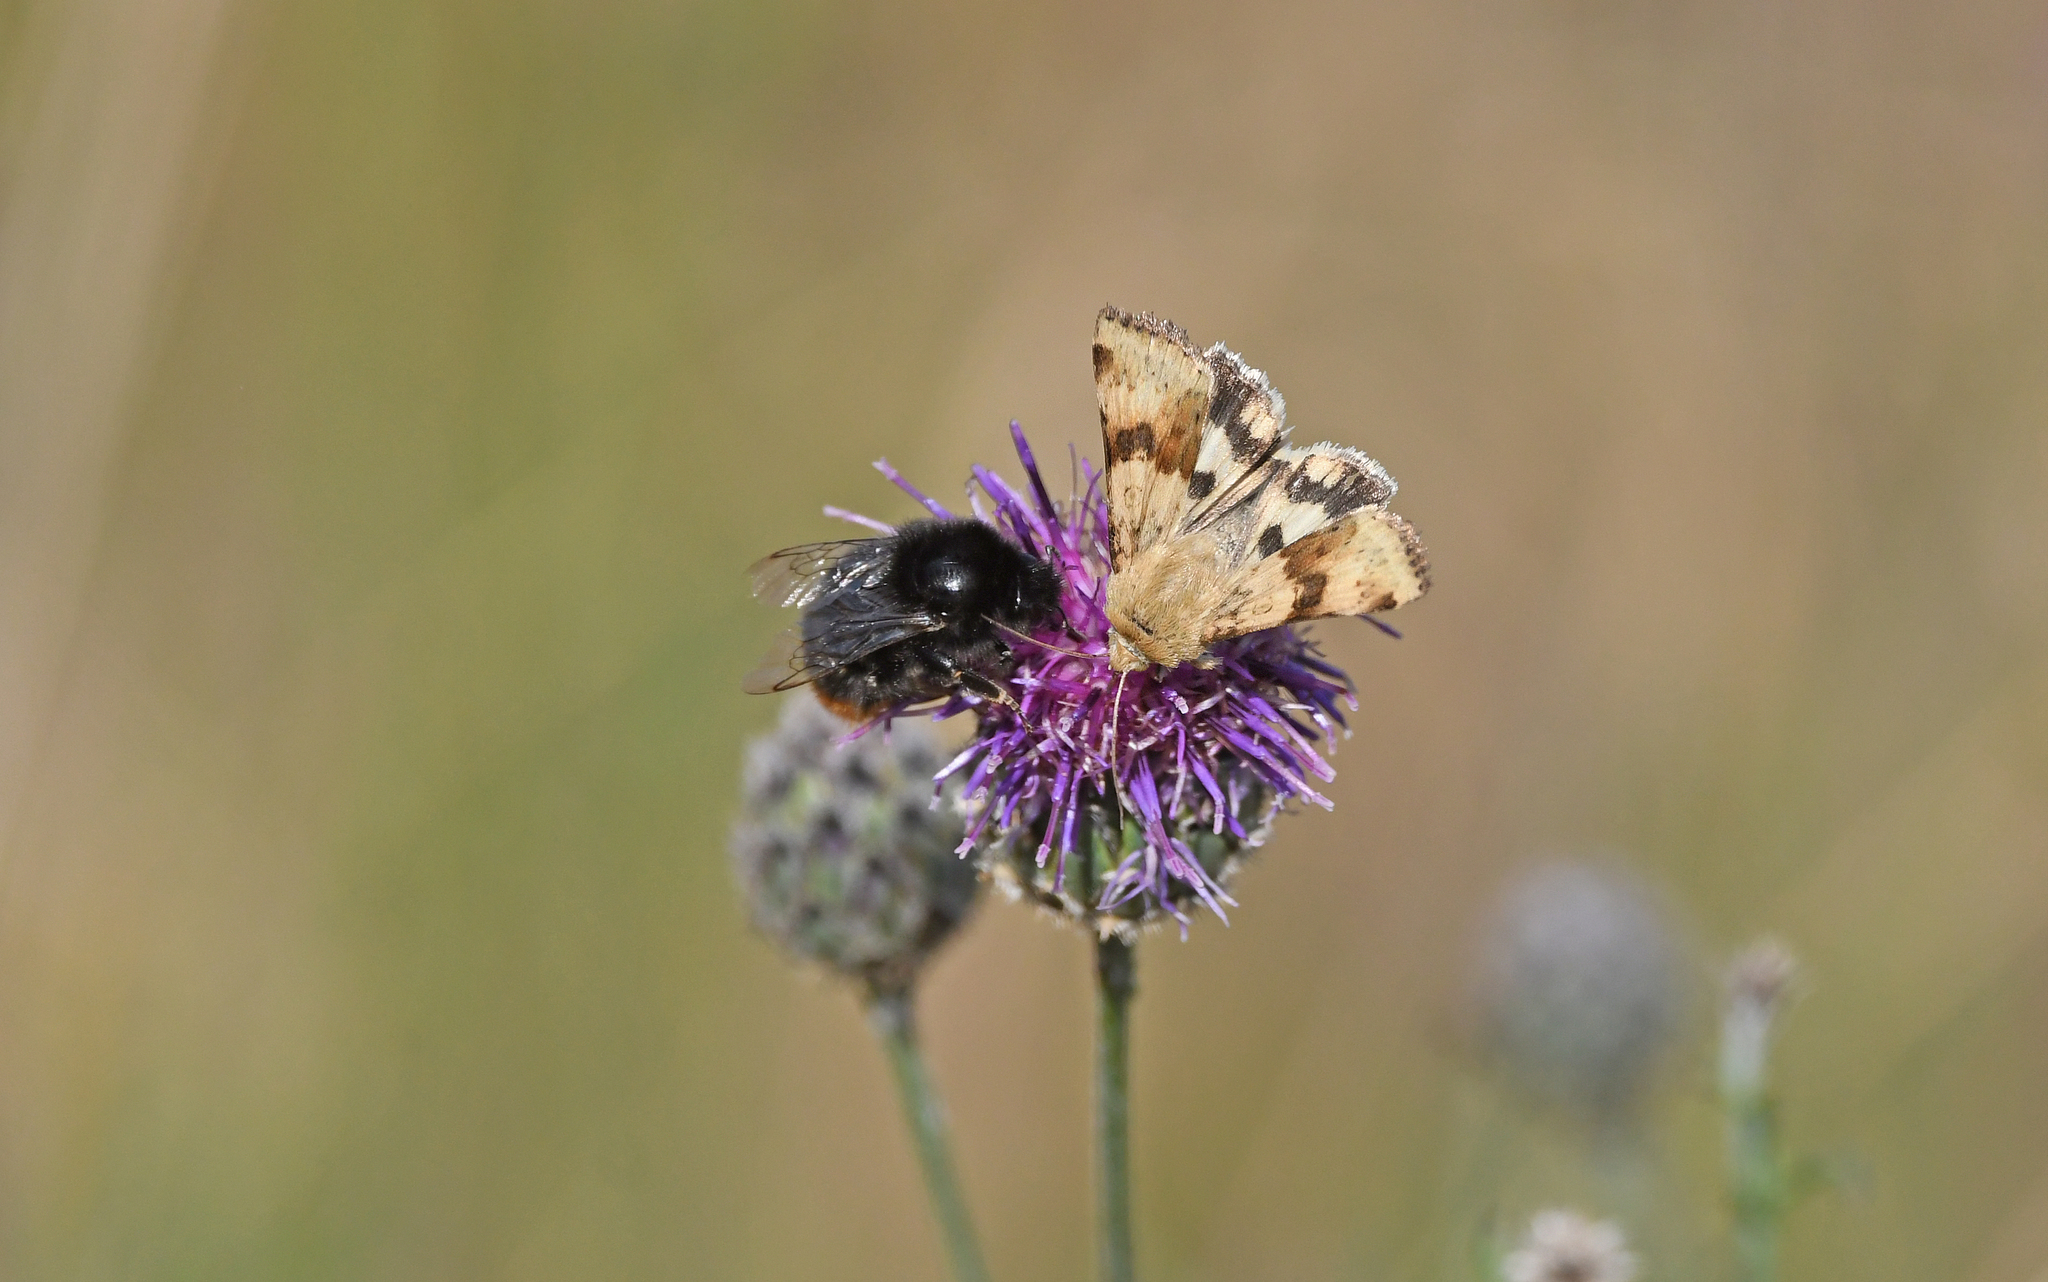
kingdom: Animalia
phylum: Arthropoda
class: Insecta
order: Lepidoptera
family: Noctuidae
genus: Heliothis
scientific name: Heliothis viriplaca
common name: Marbled clover
